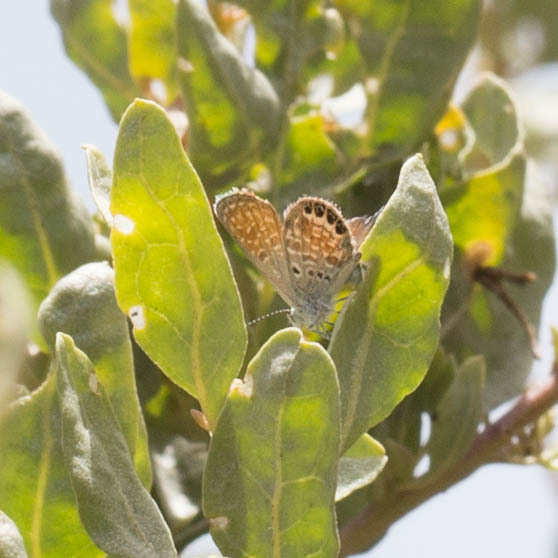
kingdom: Animalia
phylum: Arthropoda
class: Insecta
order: Lepidoptera
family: Lycaenidae
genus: Brephidium
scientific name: Brephidium exilis
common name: Pygmy blue
